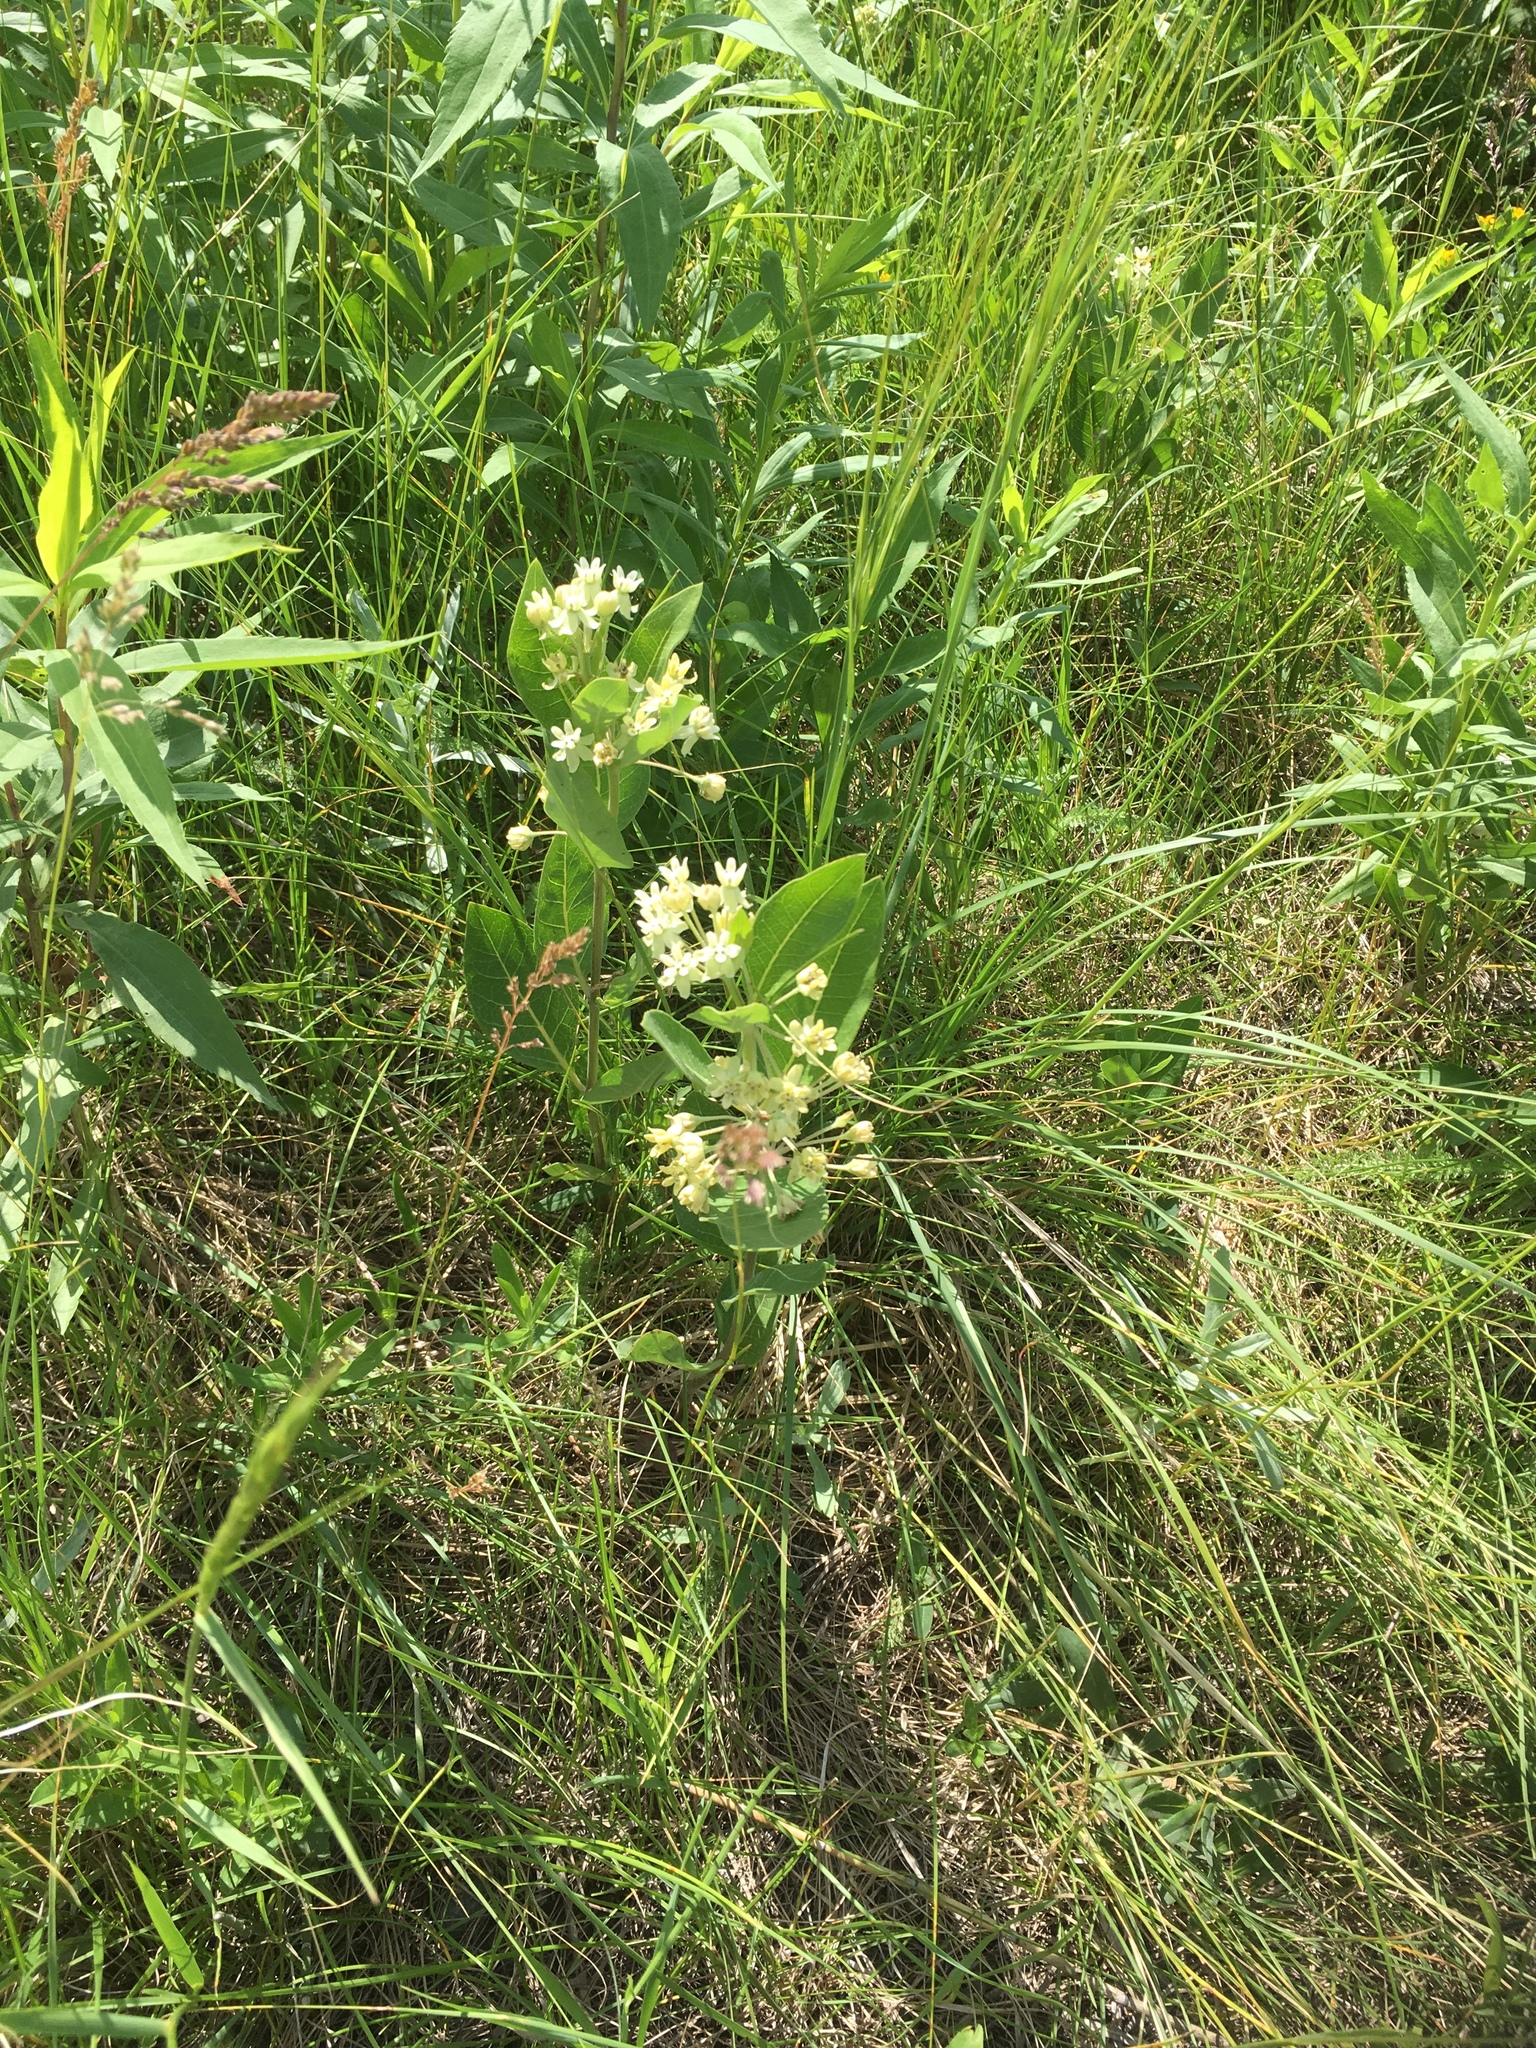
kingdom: Plantae
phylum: Tracheophyta
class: Magnoliopsida
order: Gentianales
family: Apocynaceae
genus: Asclepias
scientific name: Asclepias ovalifolia
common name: Dwarf milkweed
